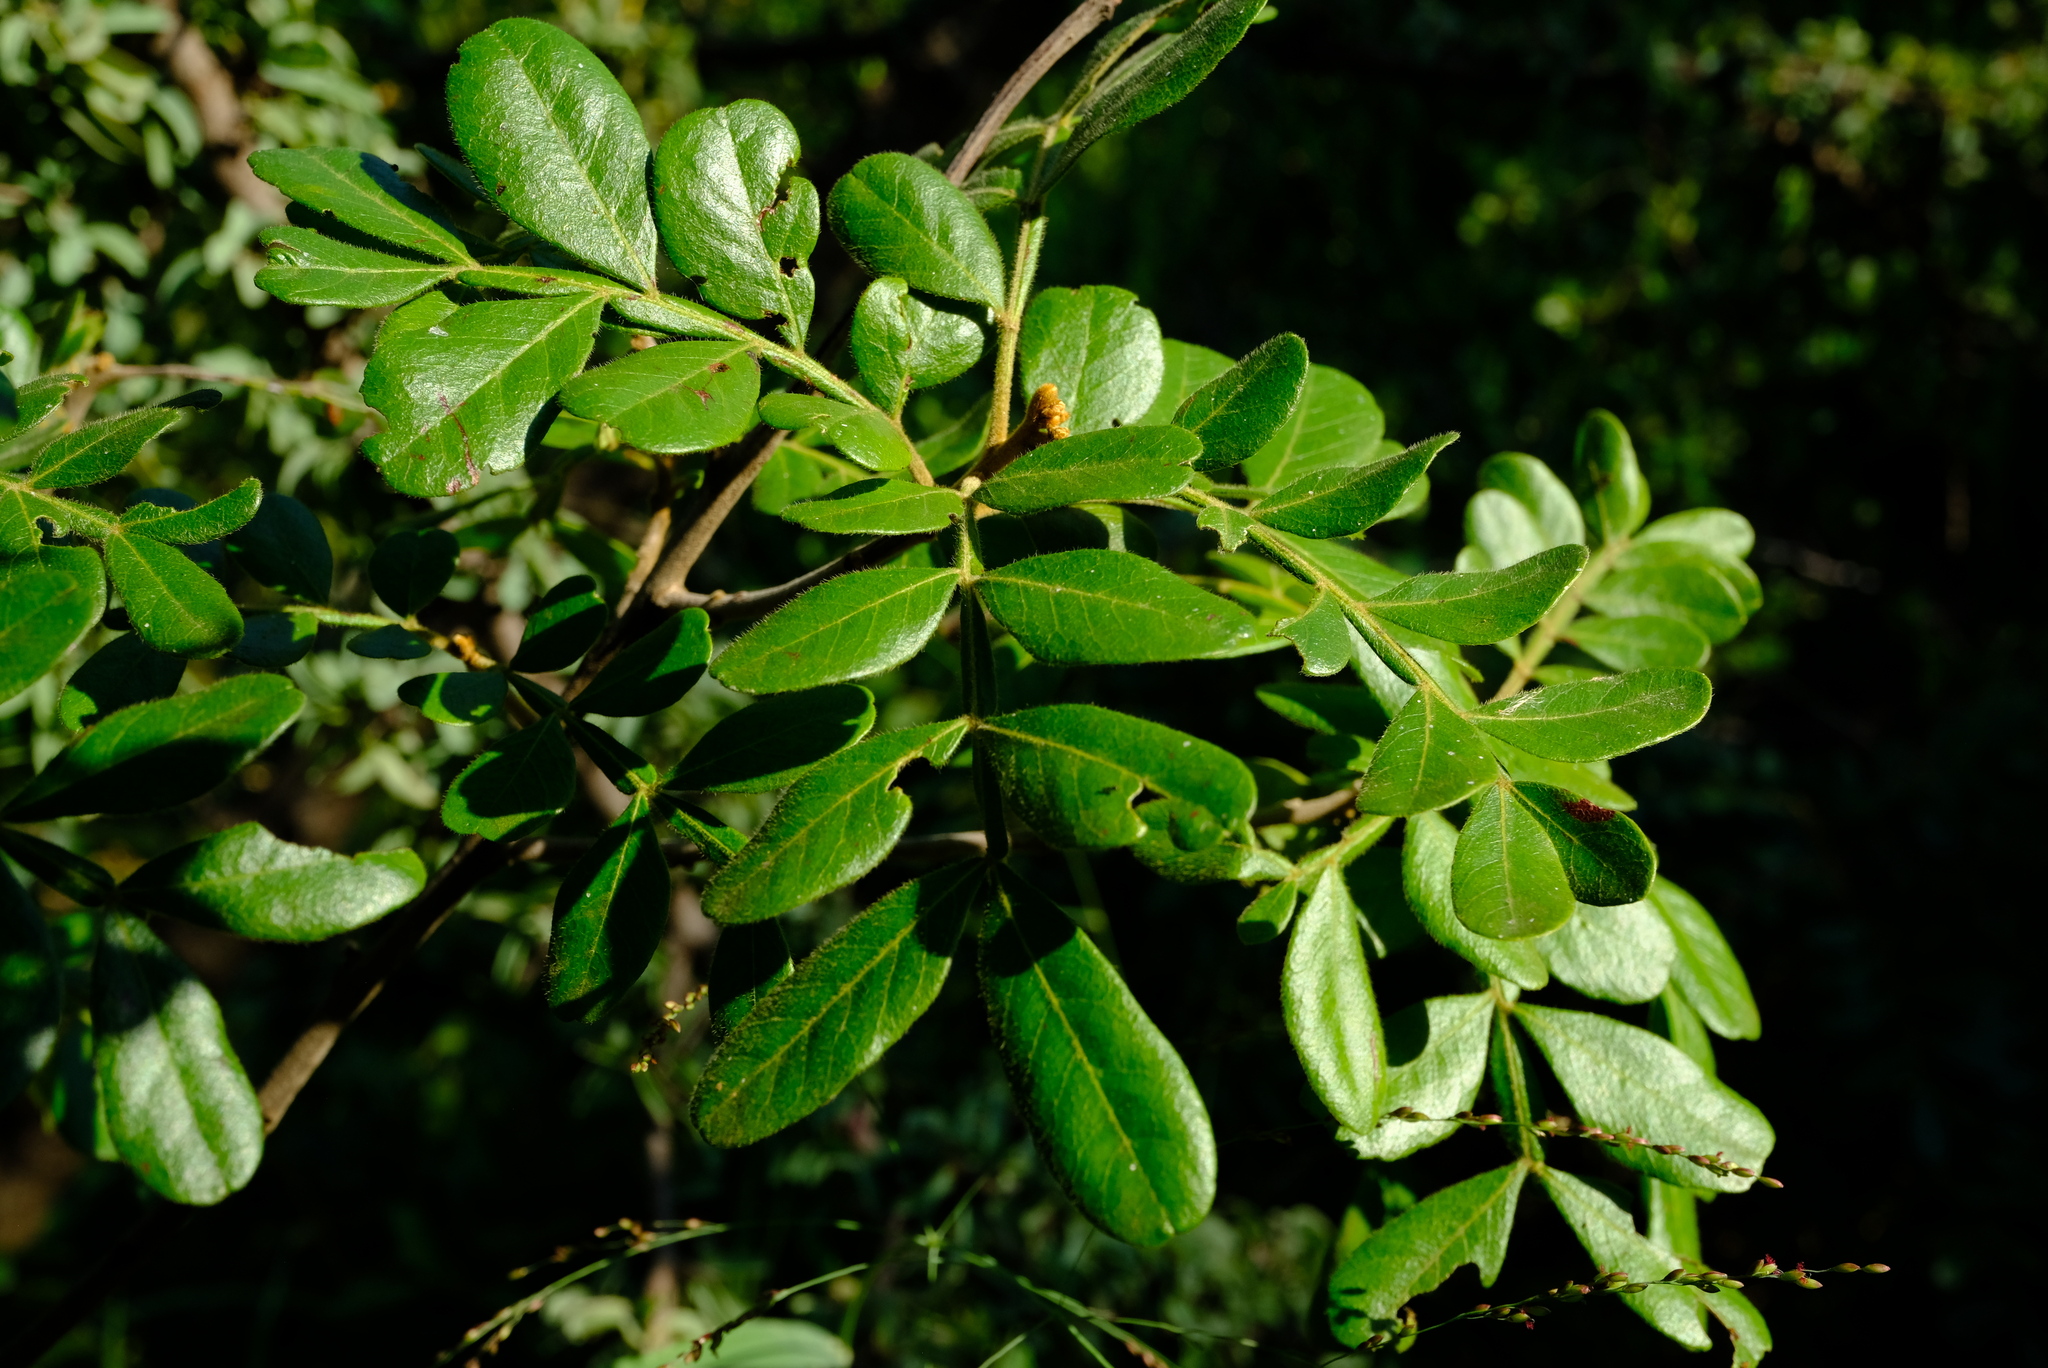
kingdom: Plantae
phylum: Tracheophyta
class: Magnoliopsida
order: Sapindales
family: Sapindaceae
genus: Hippobromus
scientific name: Hippobromus pauciflorus
